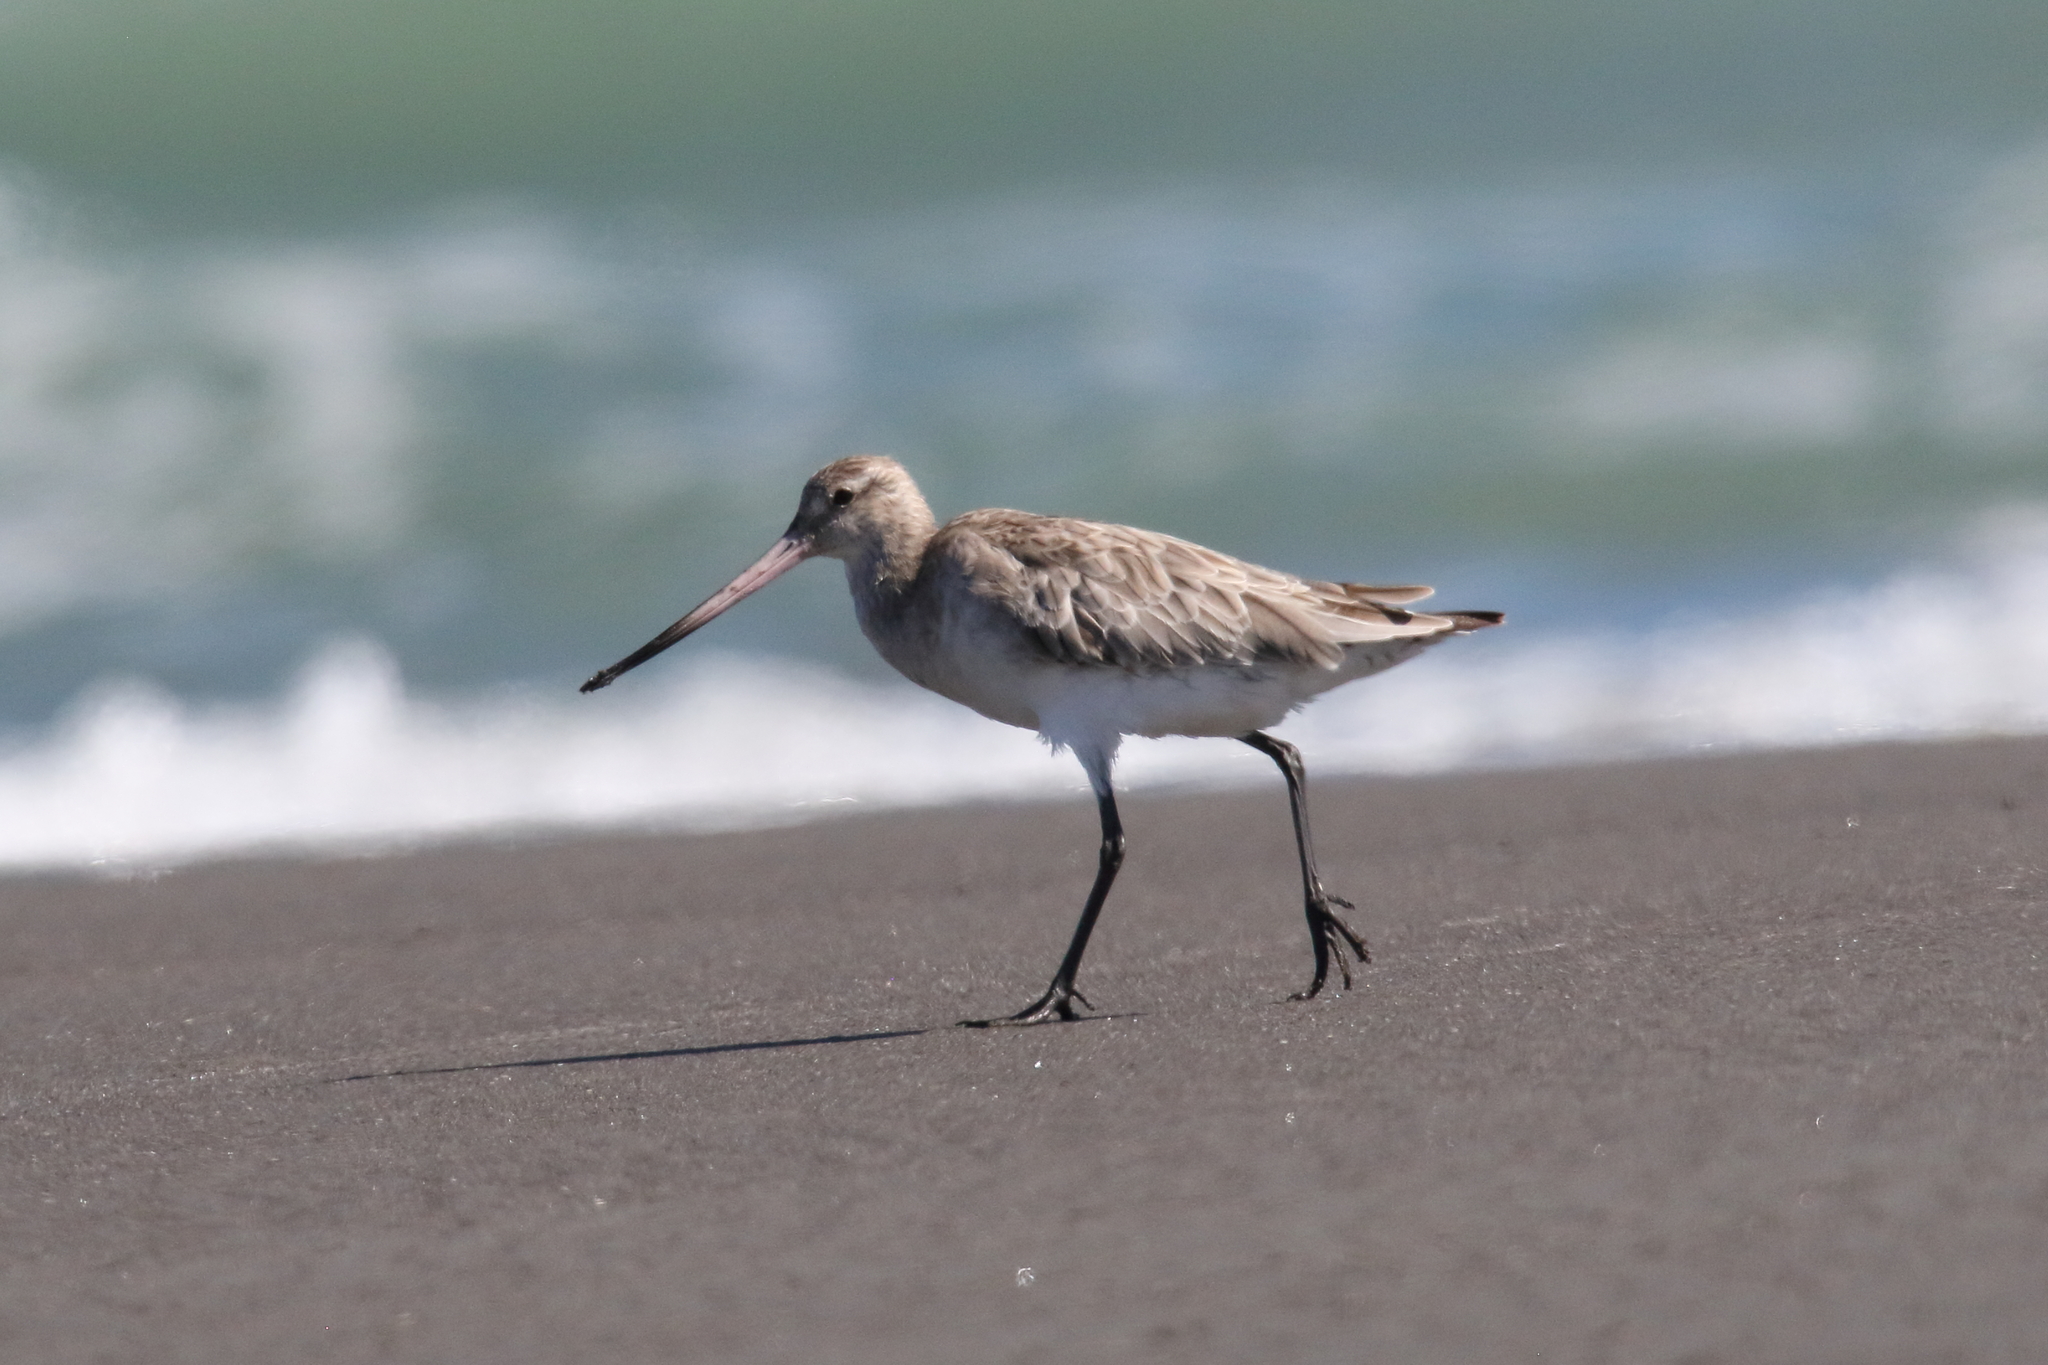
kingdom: Animalia
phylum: Chordata
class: Aves
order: Charadriiformes
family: Scolopacidae
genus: Limosa
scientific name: Limosa lapponica
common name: Bar-tailed godwit
